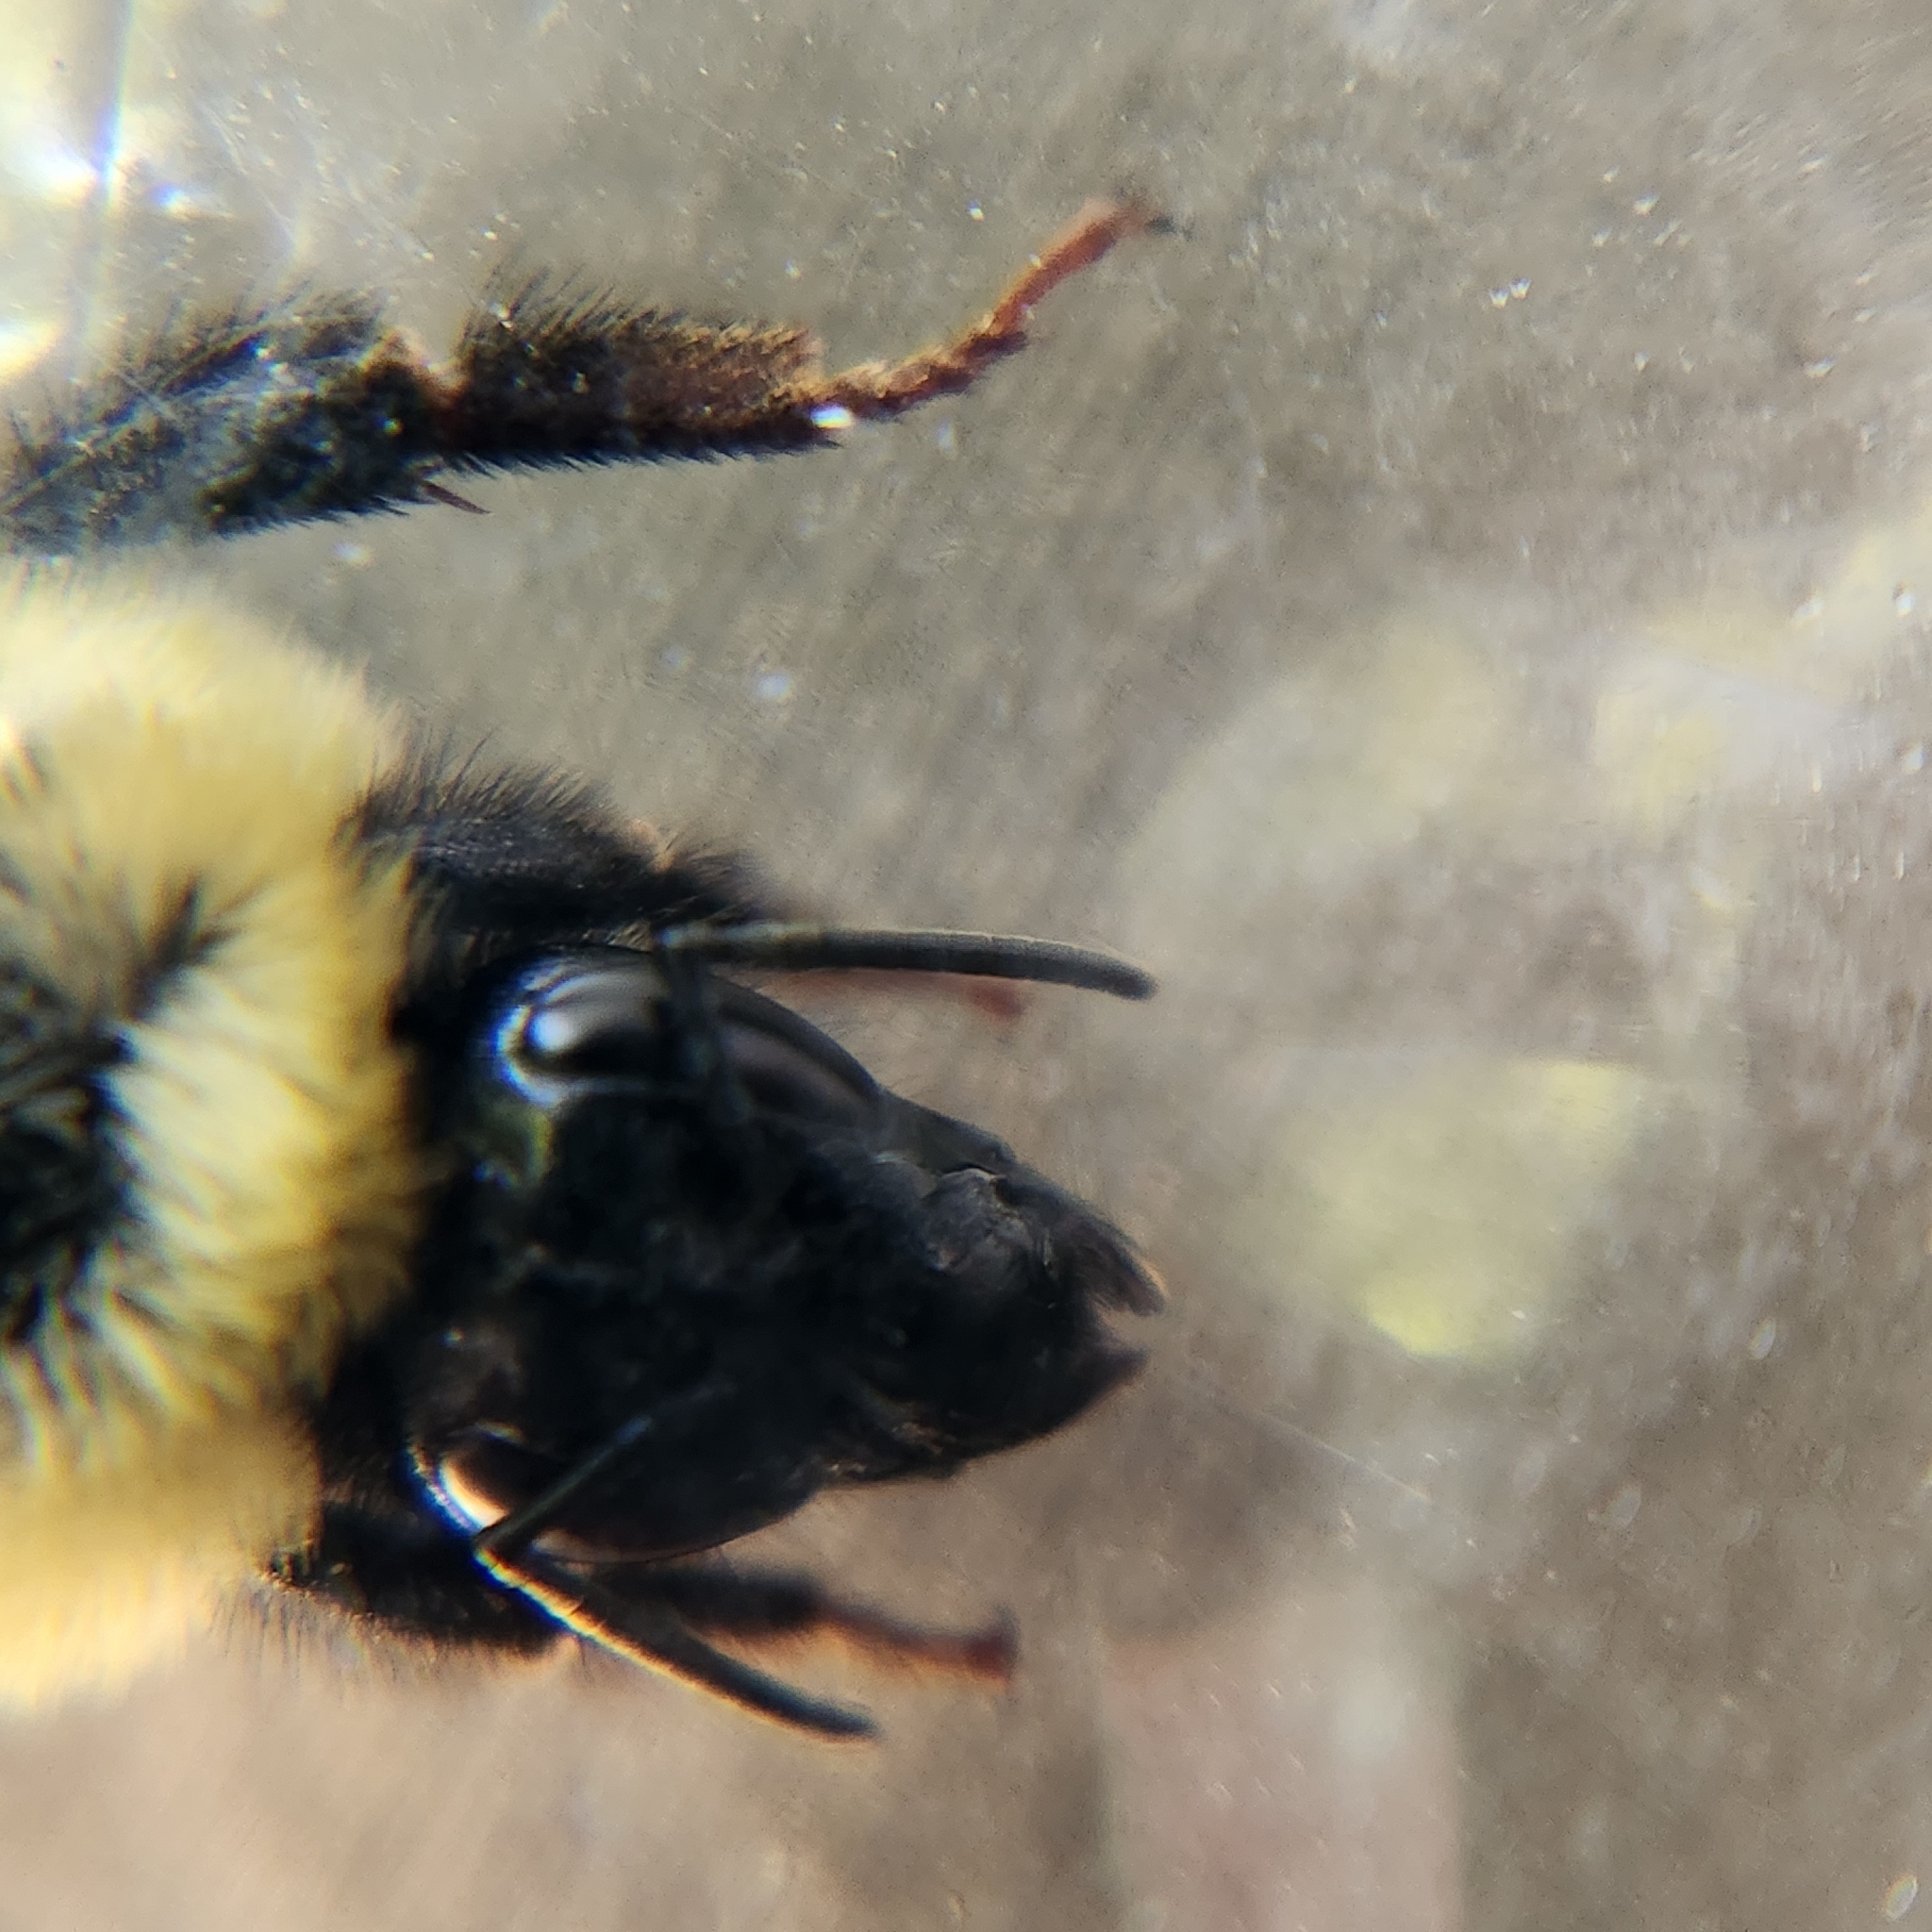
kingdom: Animalia
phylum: Arthropoda
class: Insecta
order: Hymenoptera
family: Apidae
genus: Bombus
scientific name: Bombus fervidus
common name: Yellow bumble bee
